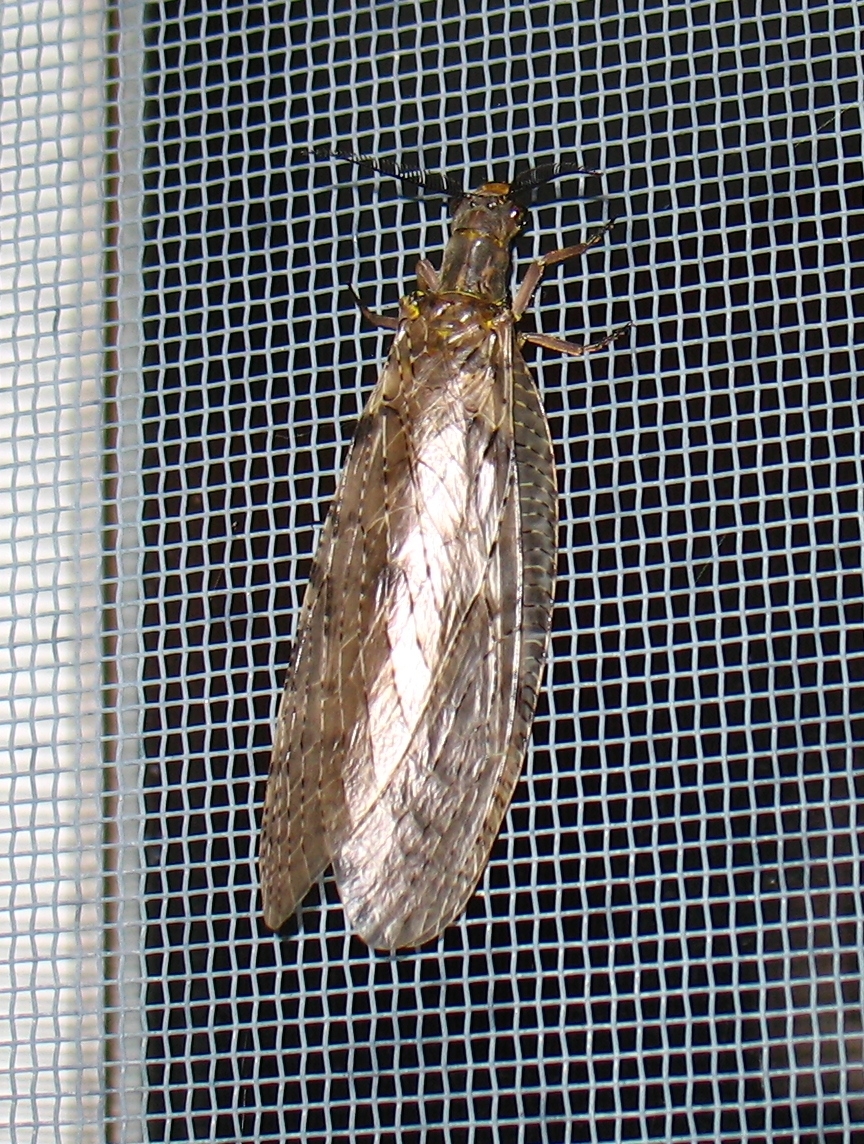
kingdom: Animalia
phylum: Arthropoda
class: Insecta
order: Megaloptera
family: Corydalidae
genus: Chauliodes
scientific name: Chauliodes pectinicornis
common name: Summer fishfly
